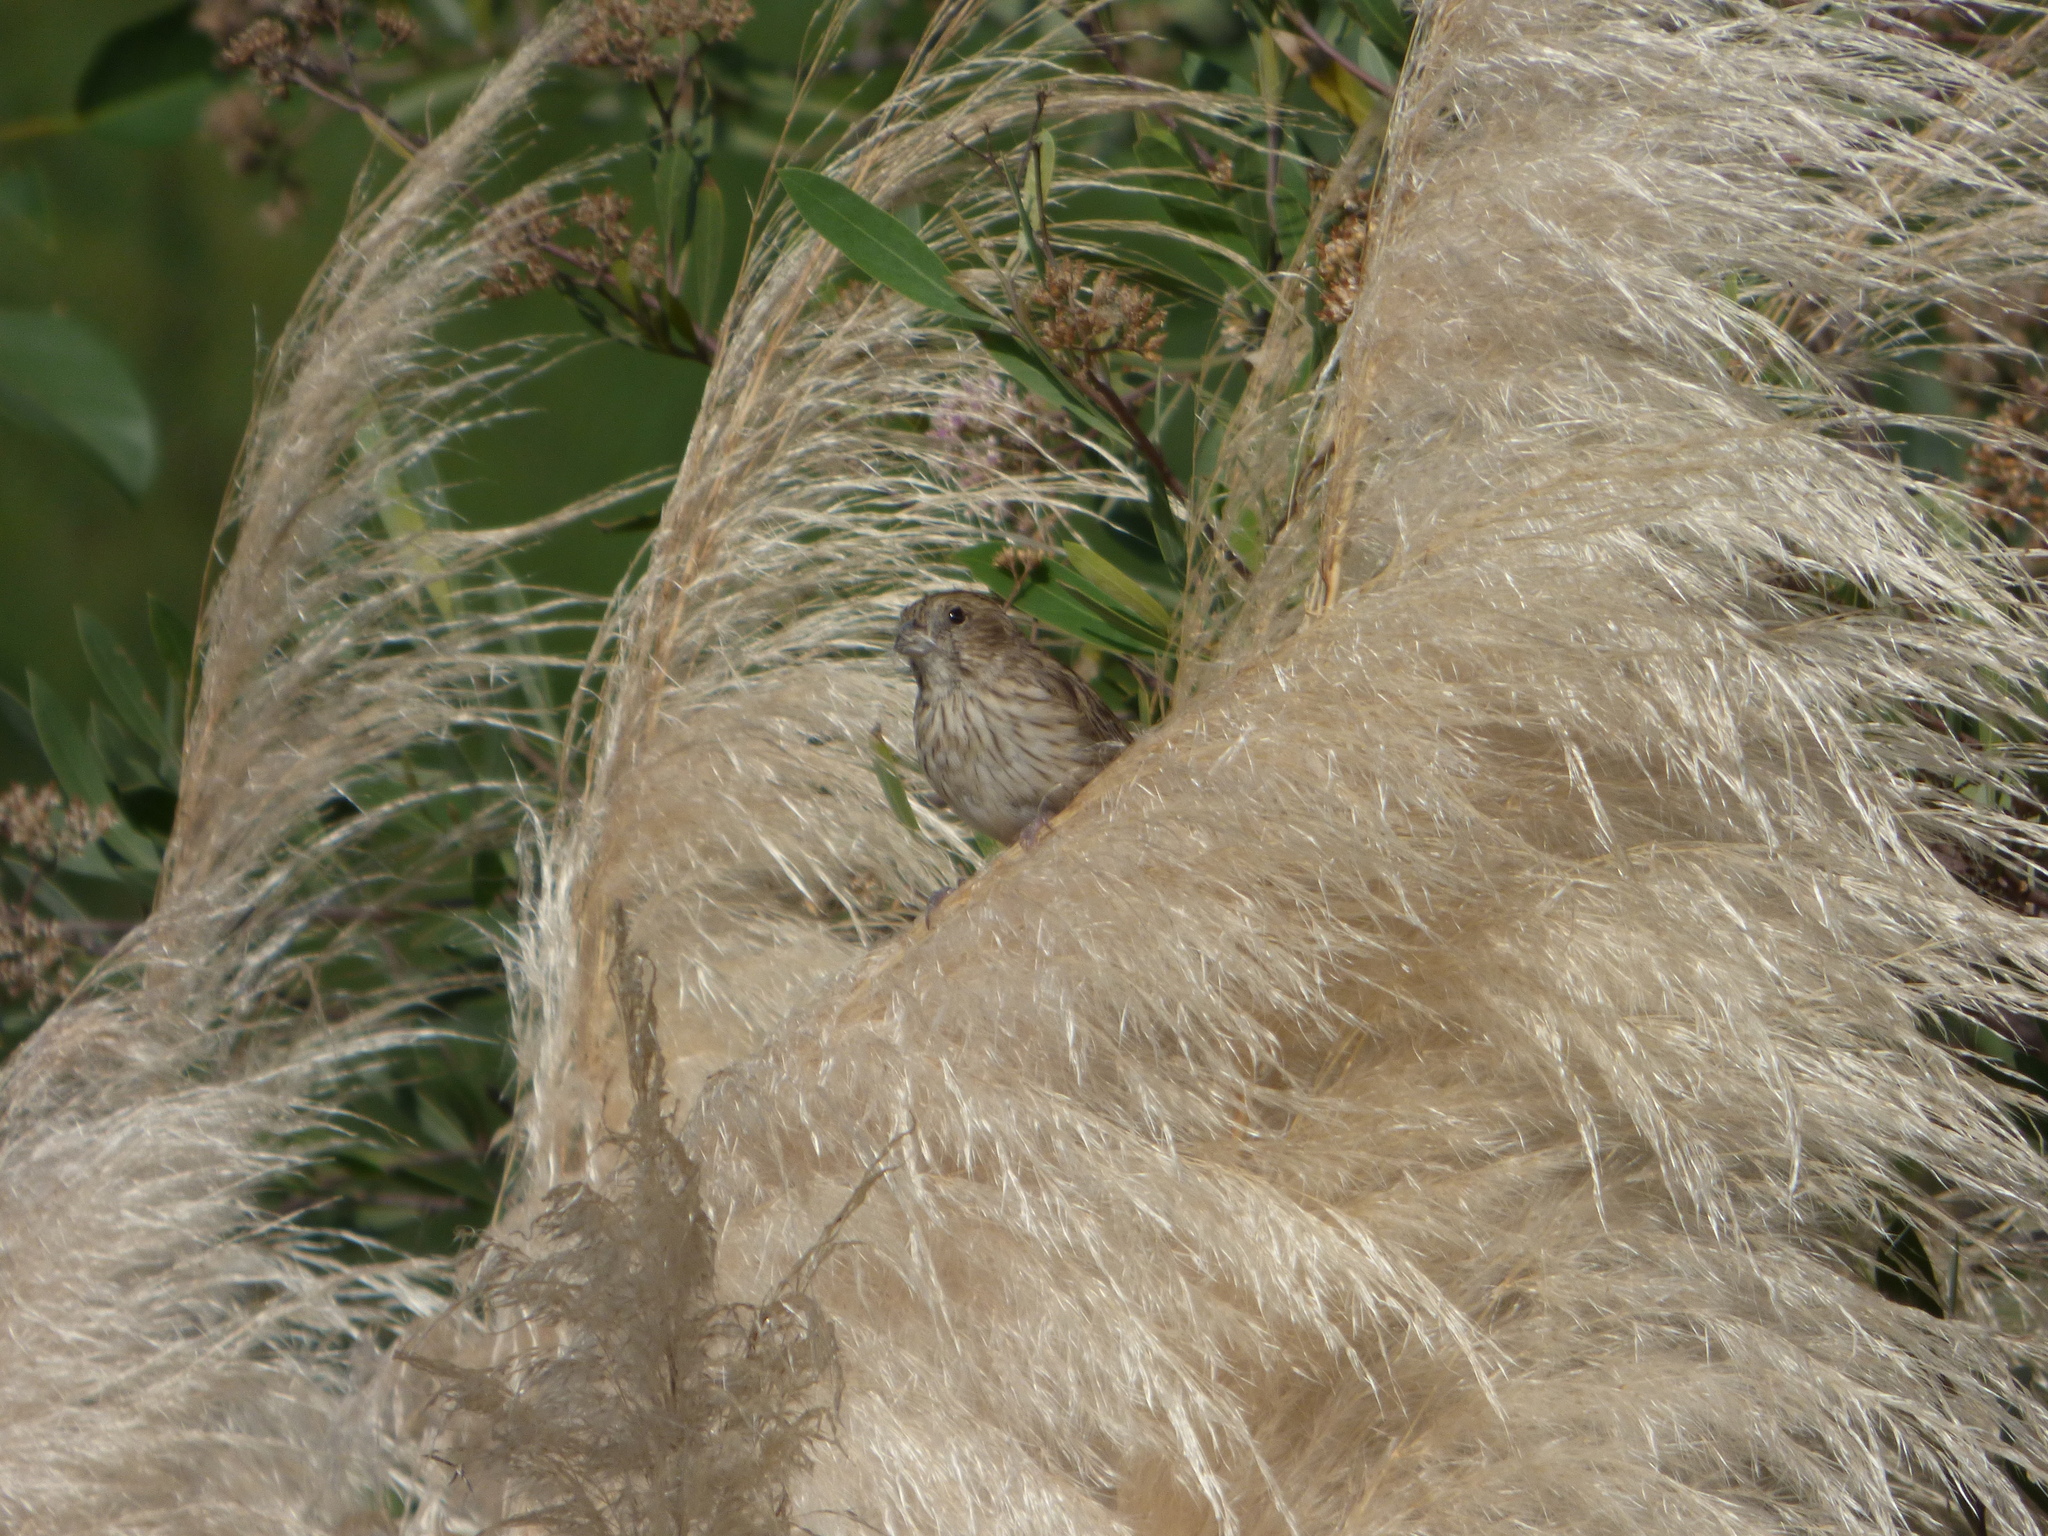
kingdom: Animalia
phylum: Chordata
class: Aves
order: Passeriformes
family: Thraupidae
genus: Sicalis
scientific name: Sicalis flaveola
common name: Saffron finch
